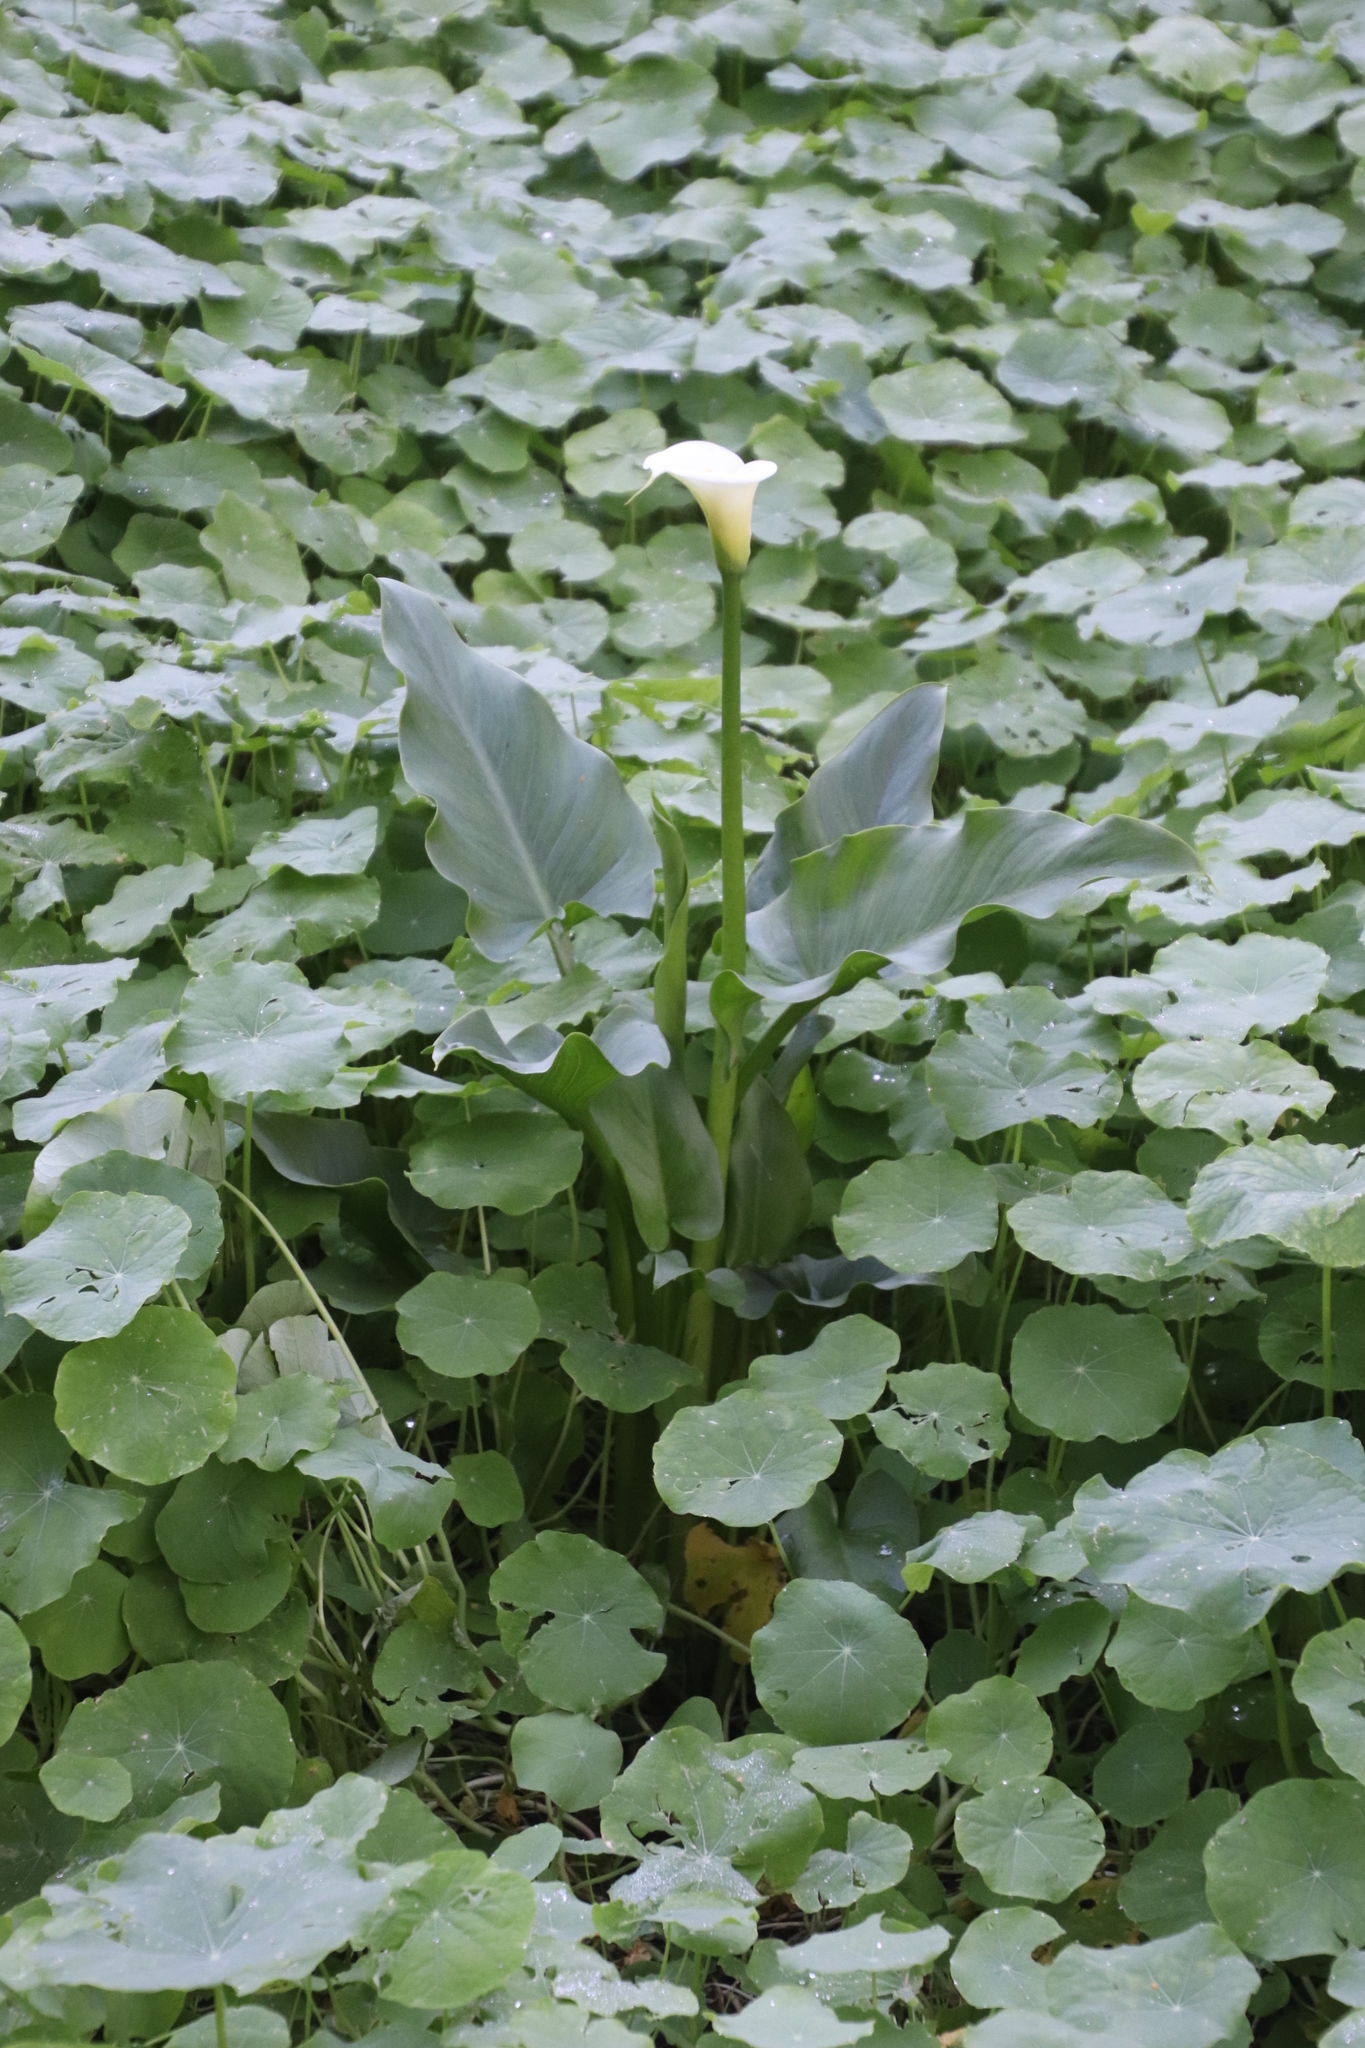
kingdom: Plantae
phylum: Tracheophyta
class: Liliopsida
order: Alismatales
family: Araceae
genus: Zantedeschia
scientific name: Zantedeschia aethiopica
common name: Altar-lily
